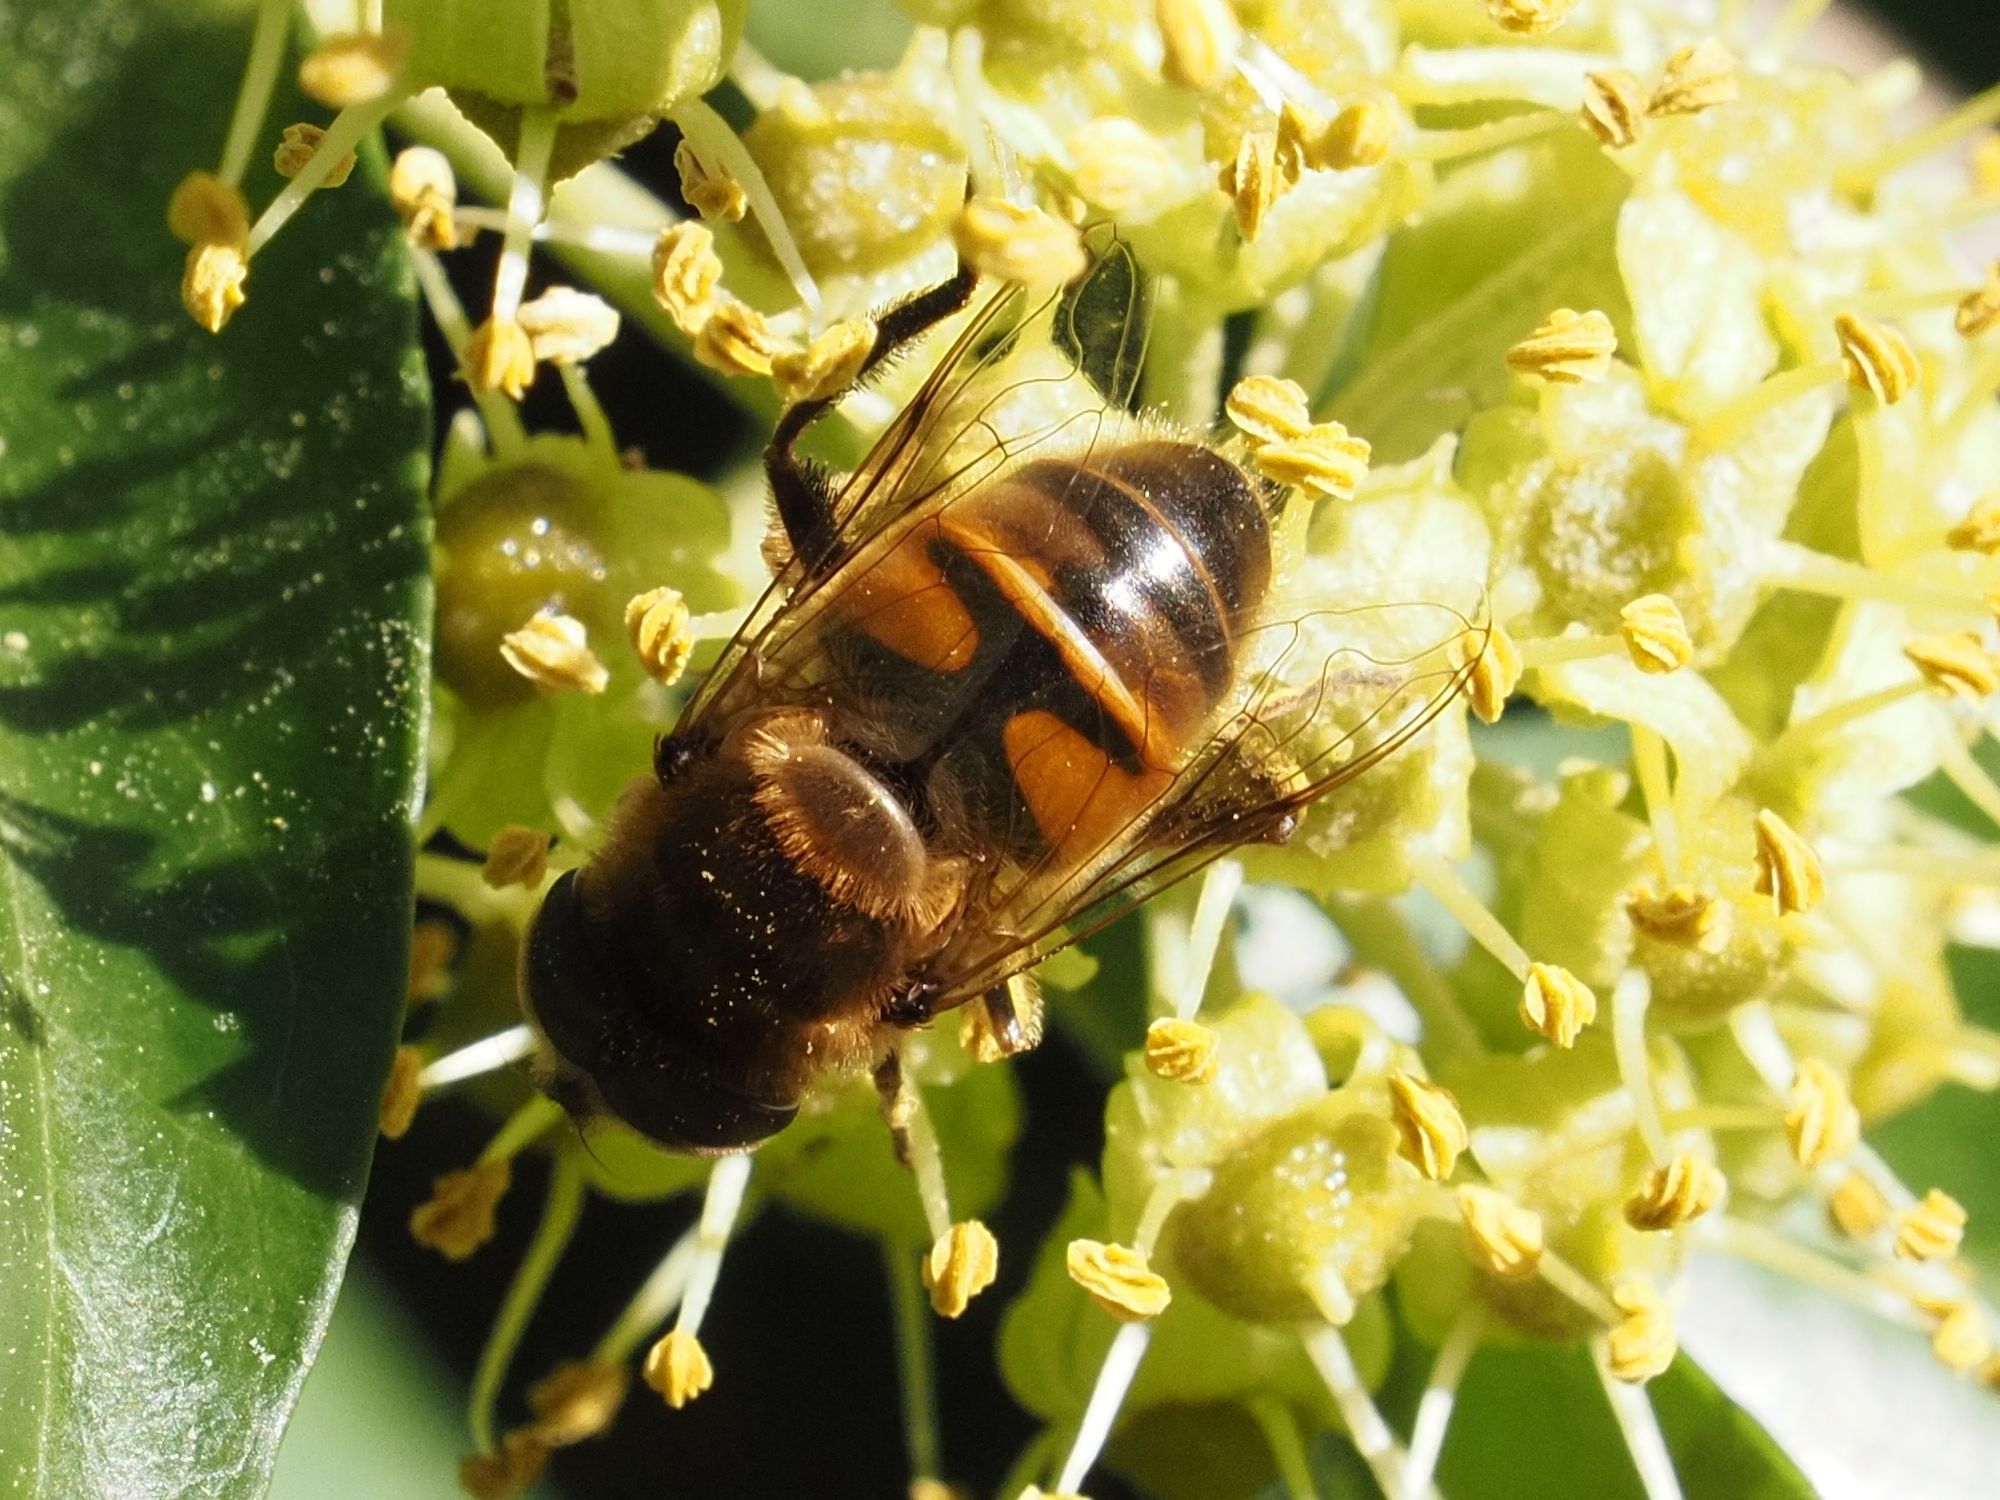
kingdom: Animalia
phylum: Arthropoda
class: Insecta
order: Diptera
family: Syrphidae
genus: Eristalis
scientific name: Eristalis tenax
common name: Drone fly
